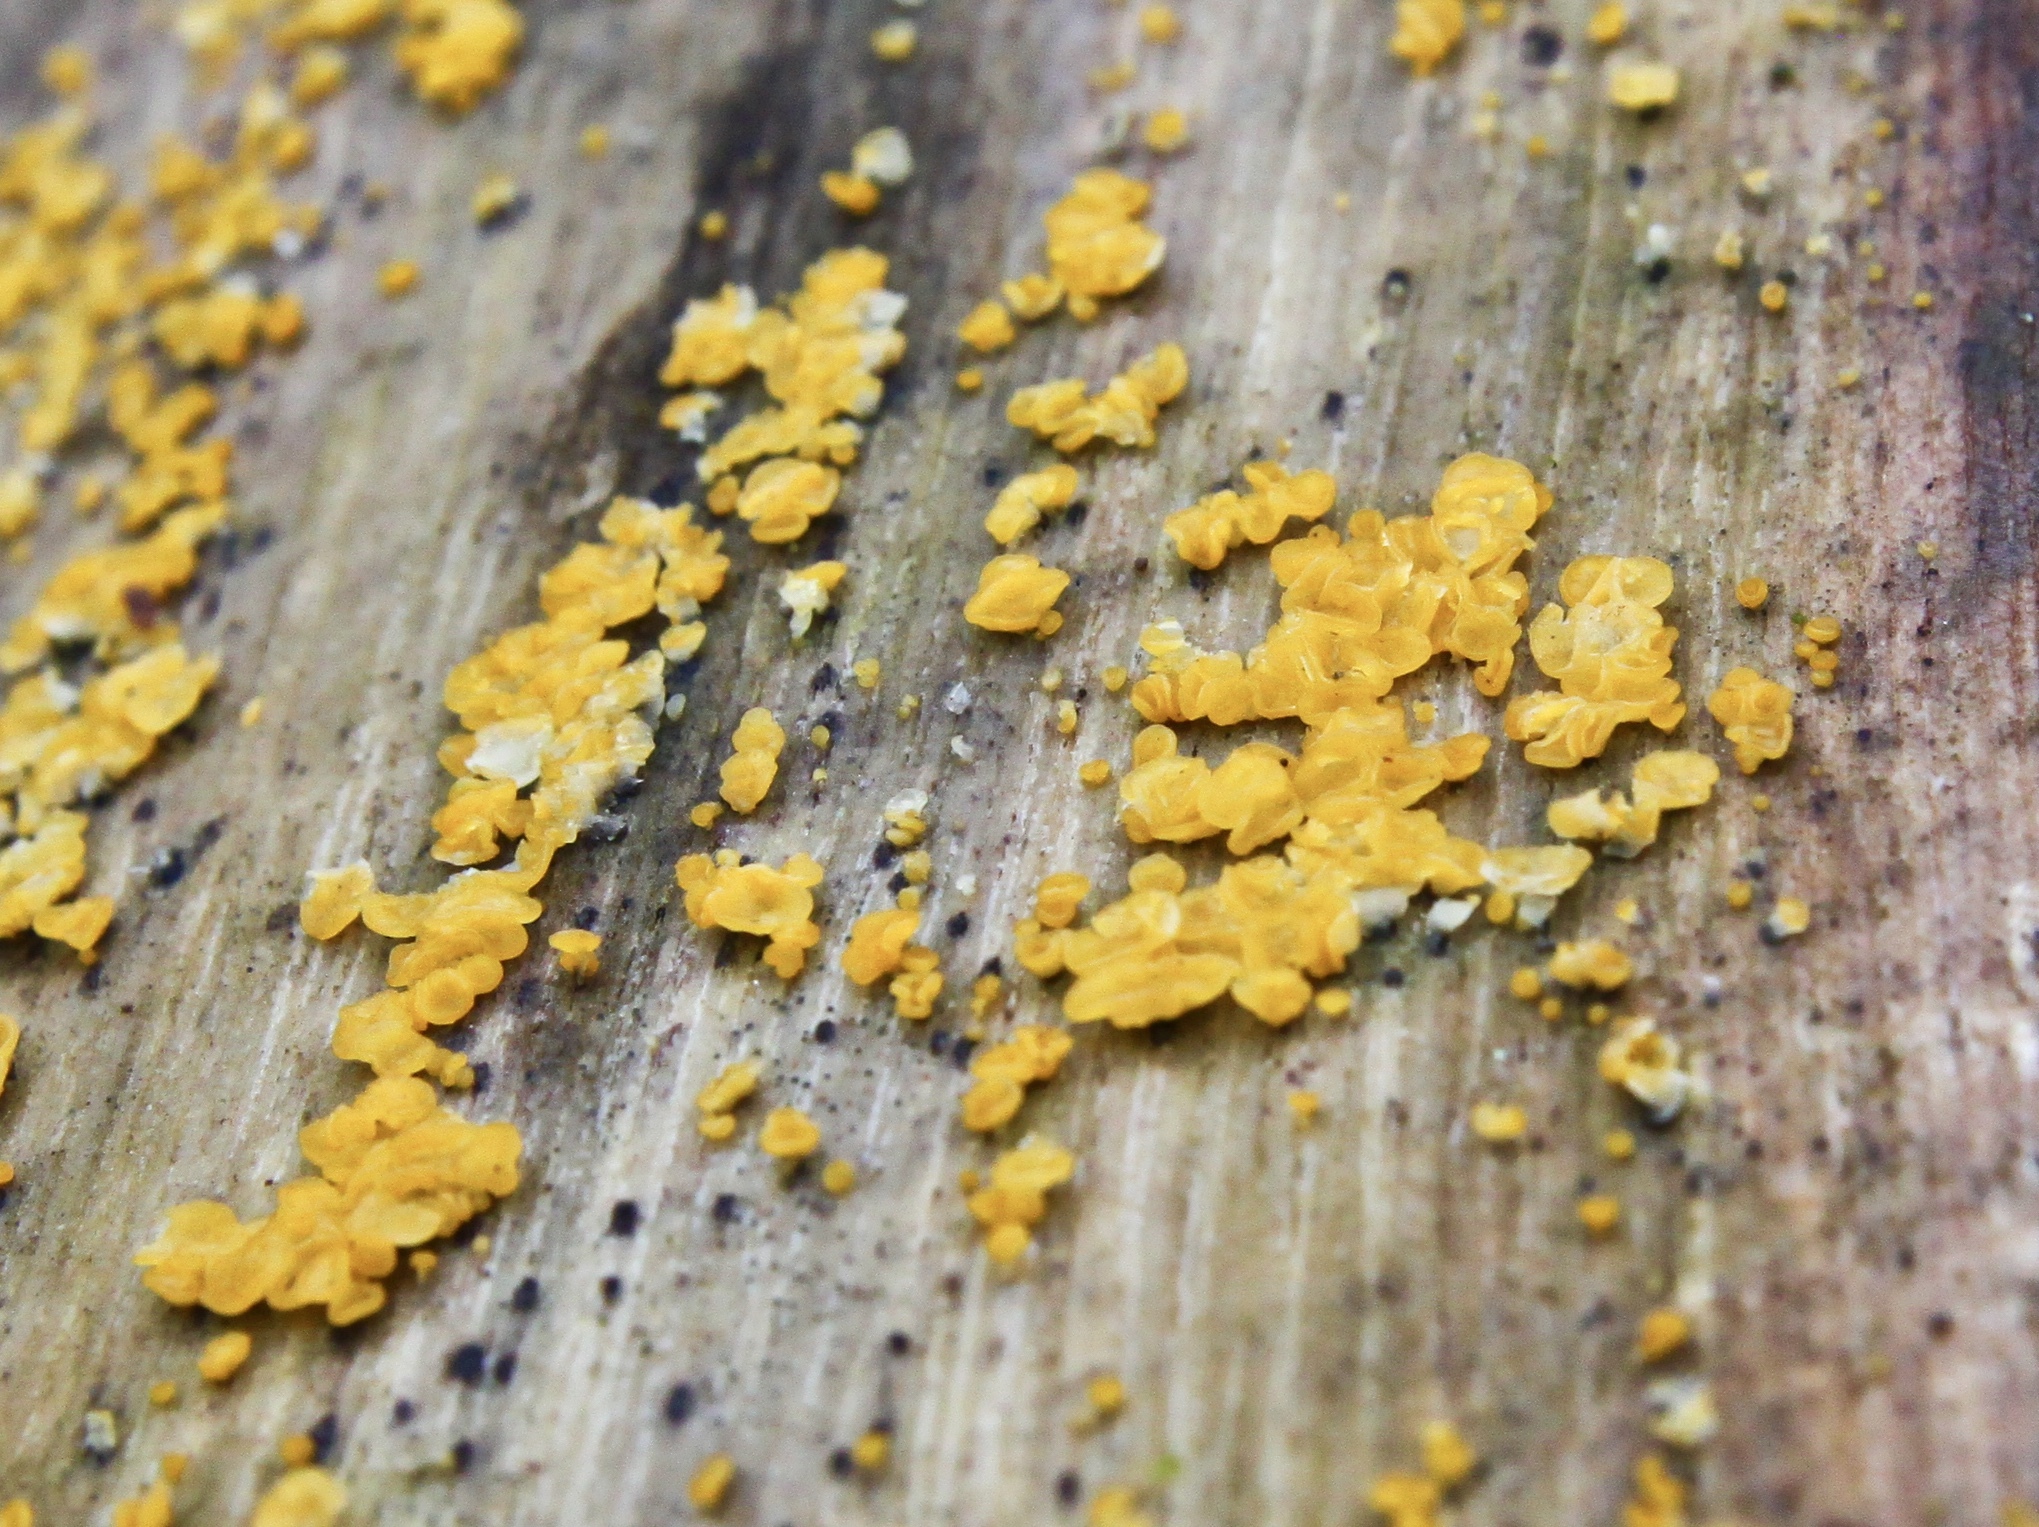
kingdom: Fungi
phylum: Ascomycota
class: Leotiomycetes
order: Helotiales
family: Pezizellaceae
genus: Calycina
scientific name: Calycina citrina
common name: Yellow fairy cups
